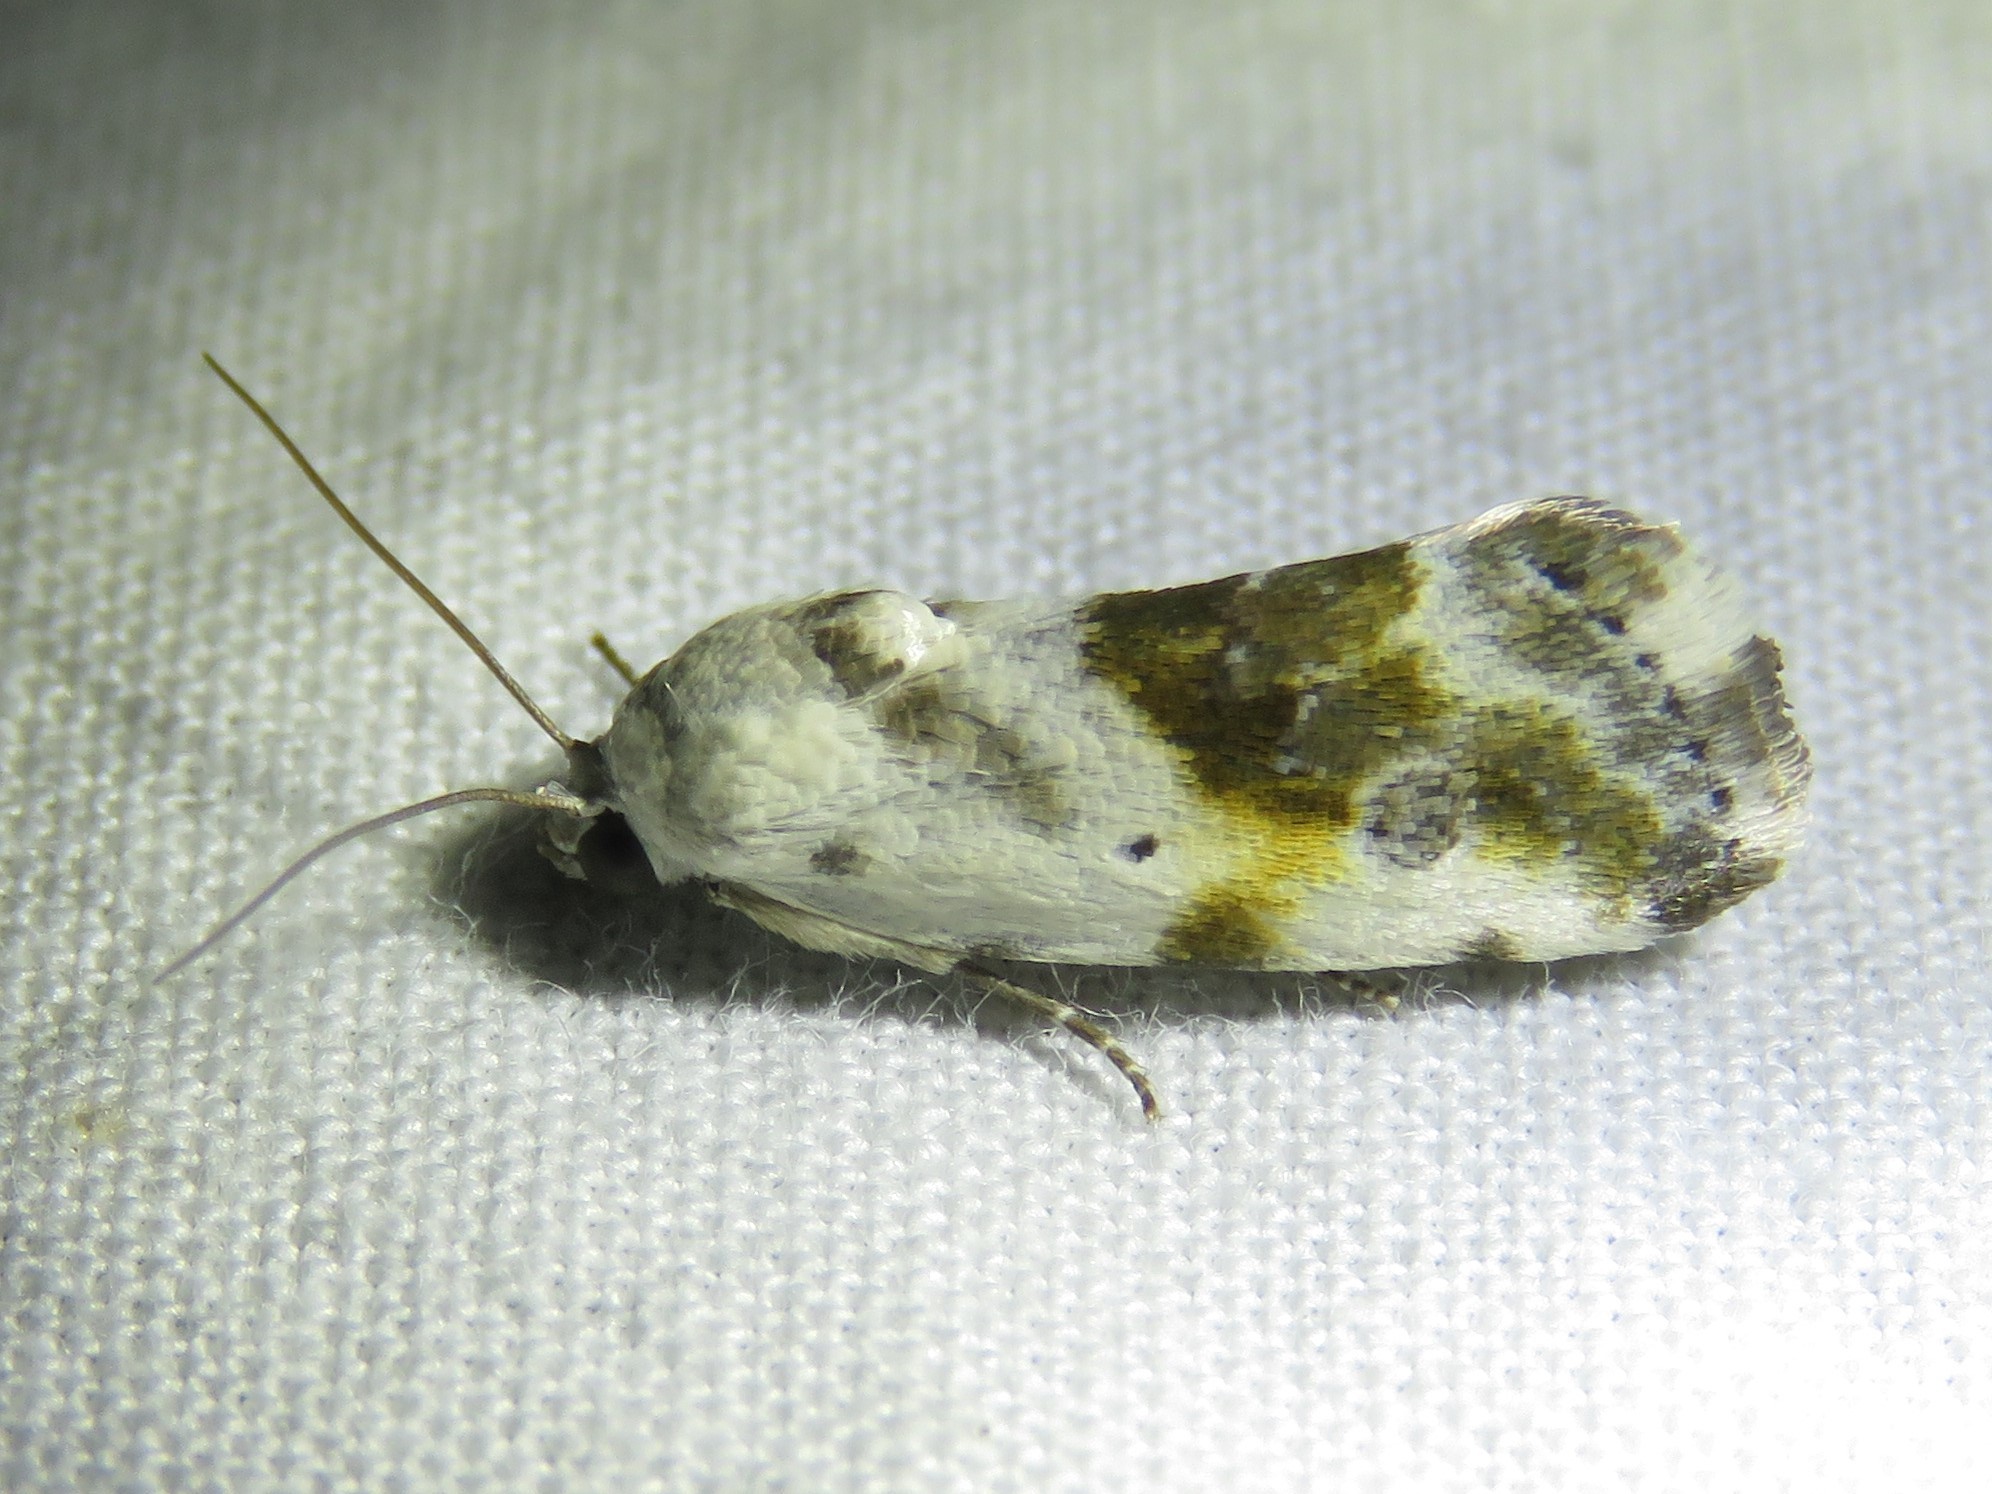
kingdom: Animalia
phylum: Arthropoda
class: Insecta
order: Lepidoptera
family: Noctuidae
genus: Acontia
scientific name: Acontia candefacta
